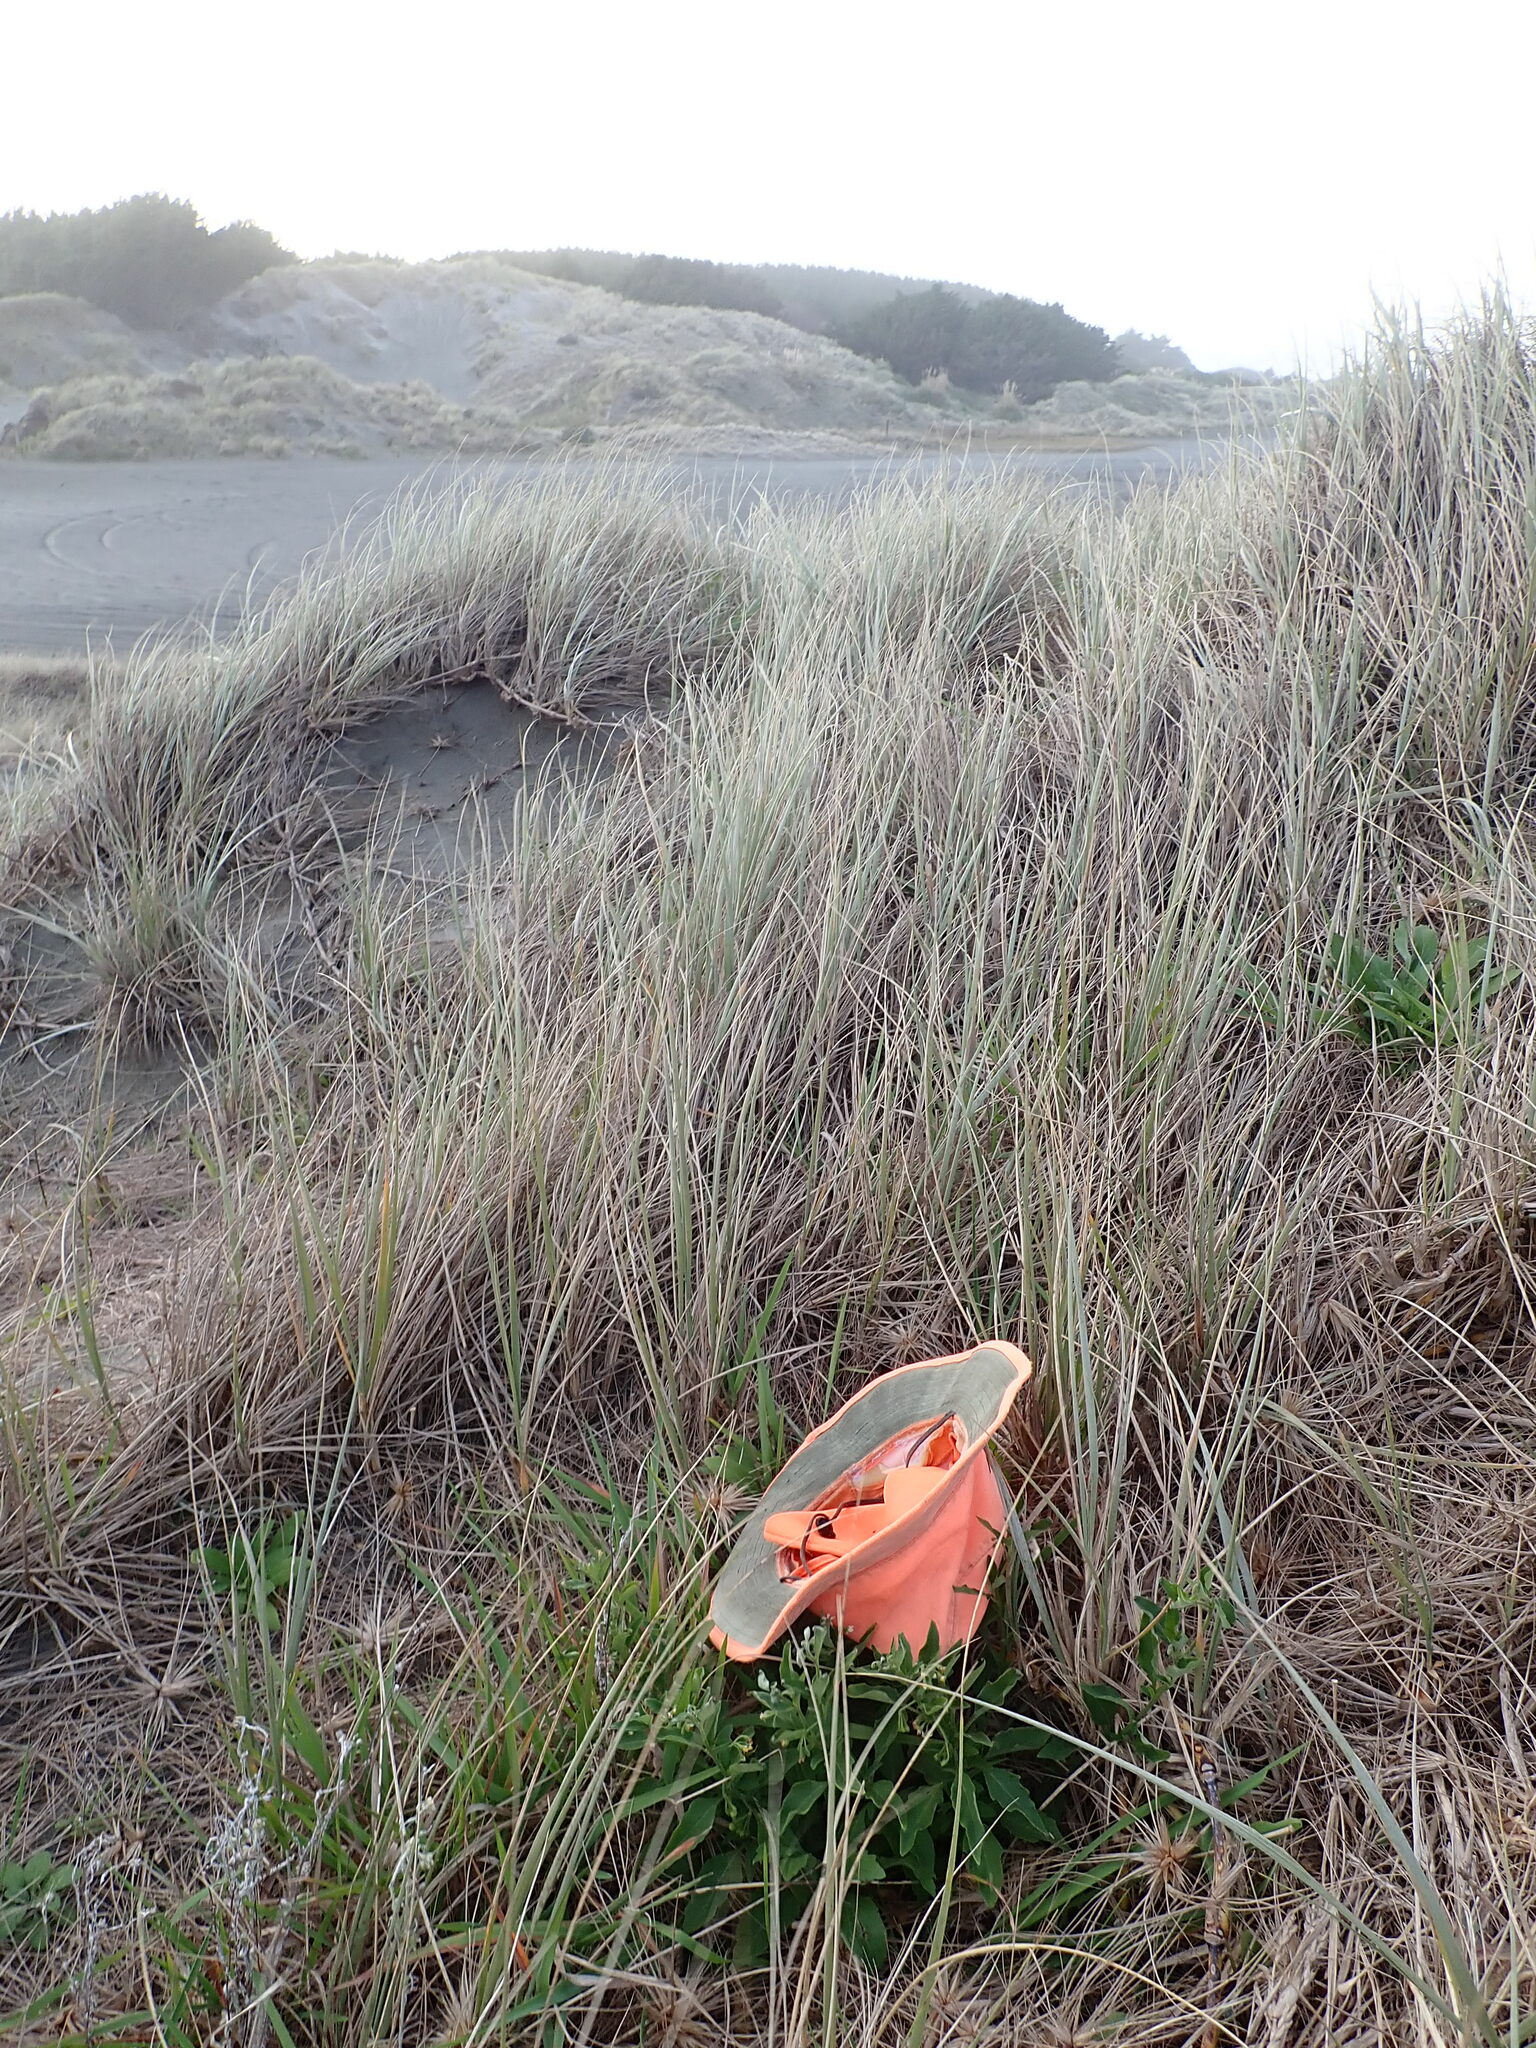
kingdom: Plantae
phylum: Tracheophyta
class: Magnoliopsida
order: Solanales
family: Solanaceae
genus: Solanum
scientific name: Solanum chenopodioides
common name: Tall nightshade
